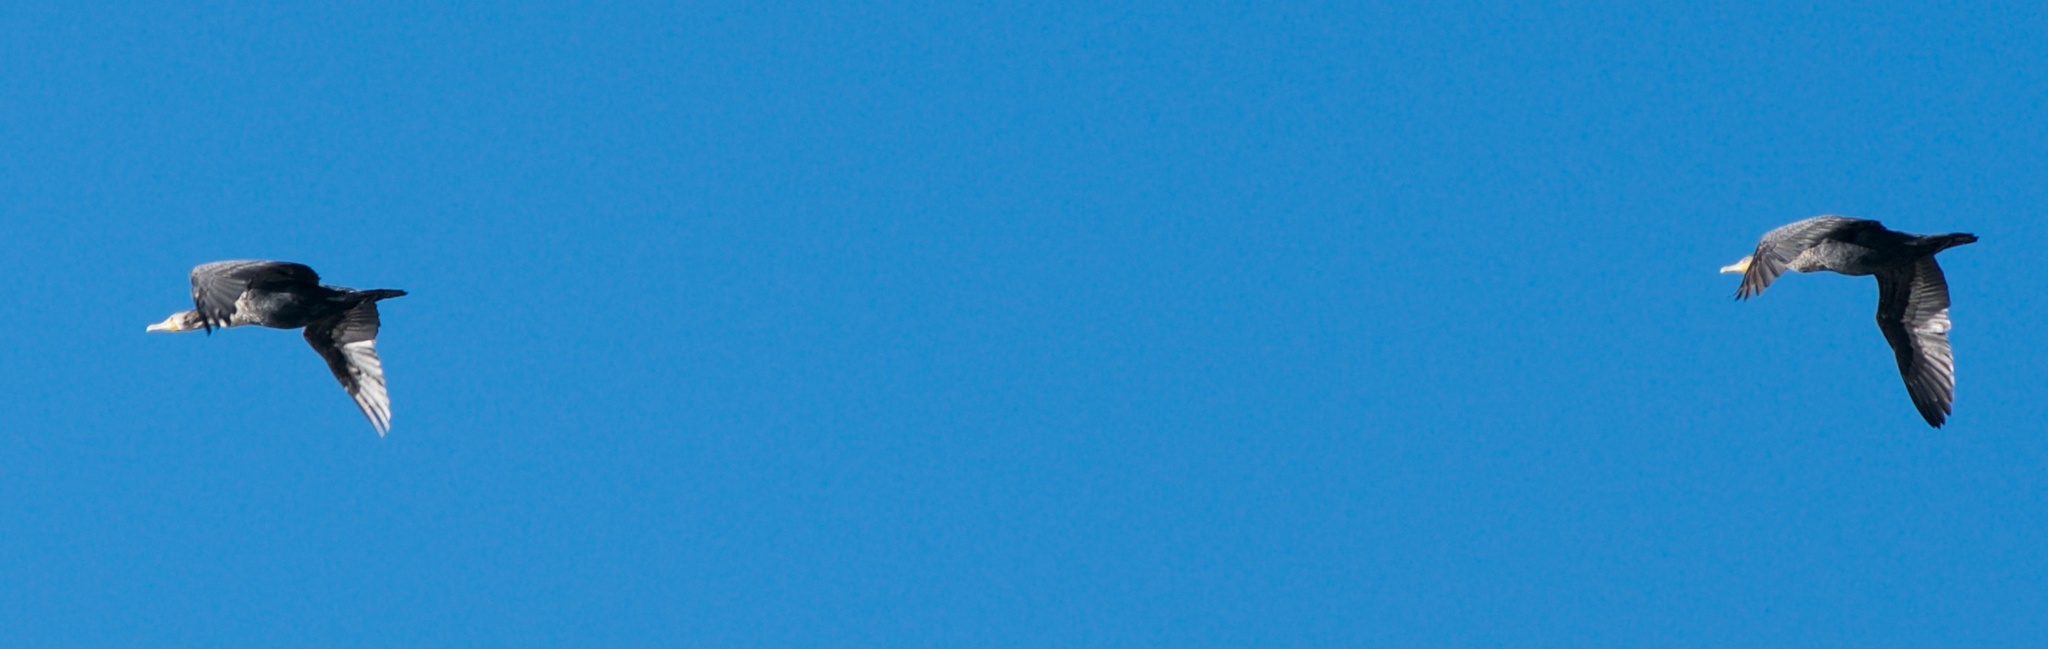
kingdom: Animalia
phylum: Chordata
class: Aves
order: Suliformes
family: Phalacrocoracidae
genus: Phalacrocorax
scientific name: Phalacrocorax auritus
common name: Double-crested cormorant
